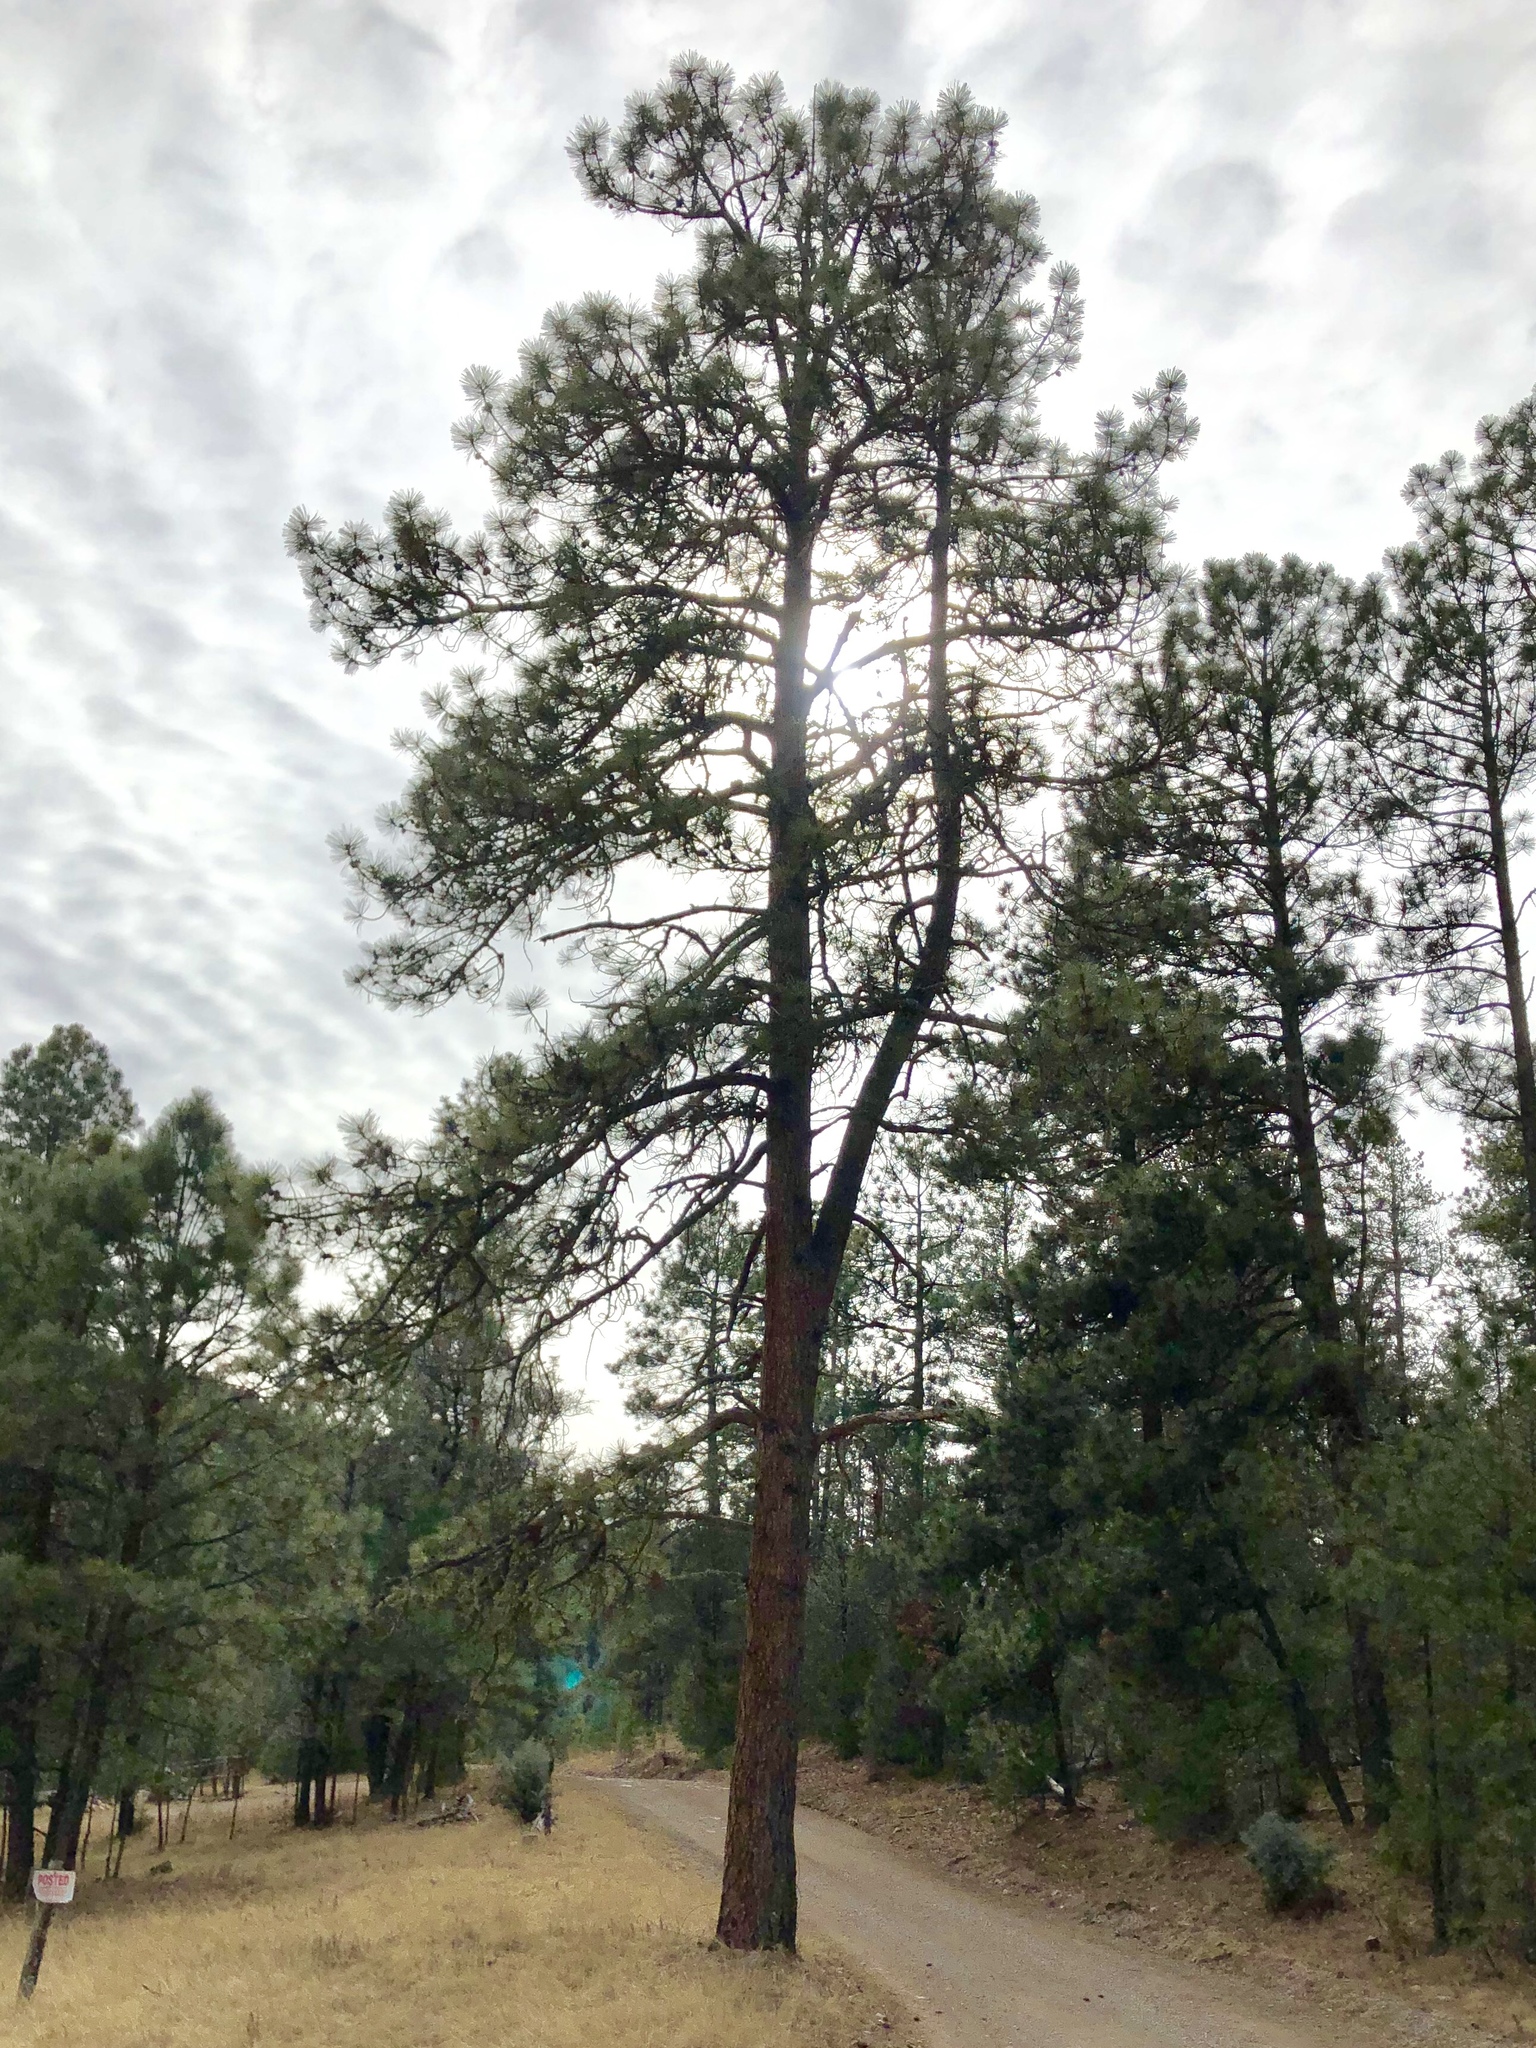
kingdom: Plantae
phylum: Tracheophyta
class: Pinopsida
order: Pinales
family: Pinaceae
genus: Pinus
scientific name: Pinus ponderosa
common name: Western yellow-pine
